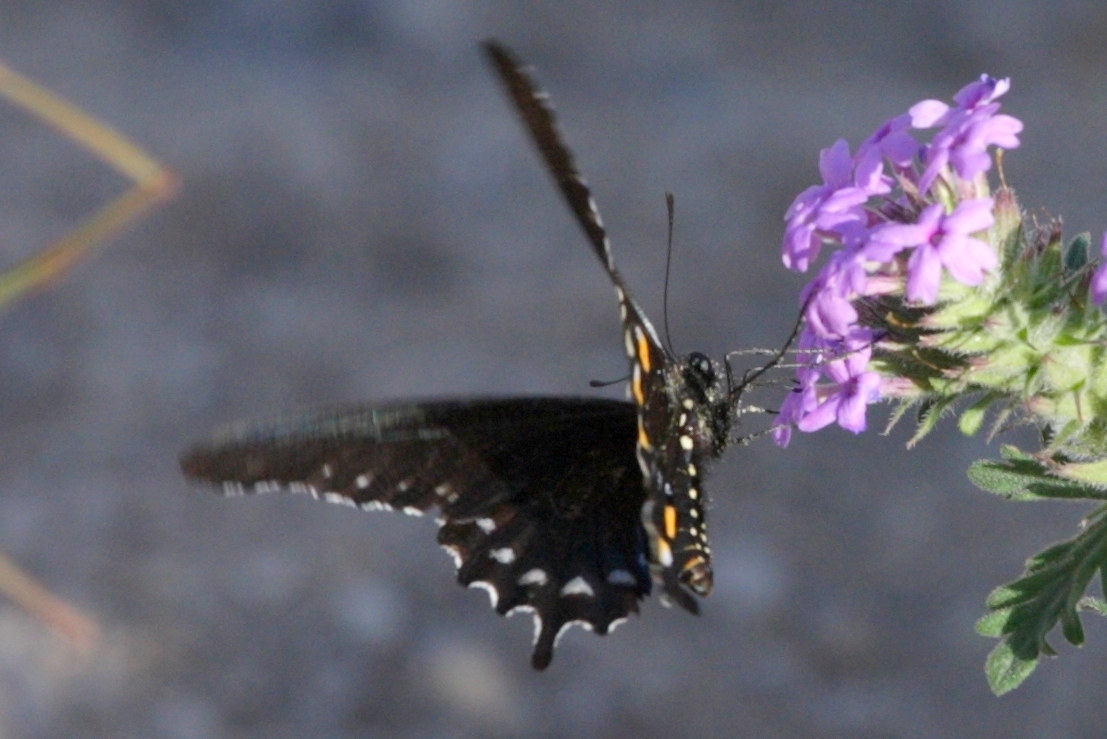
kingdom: Animalia
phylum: Arthropoda
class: Insecta
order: Lepidoptera
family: Papilionidae
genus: Battus
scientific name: Battus philenor
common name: Pipevine swallowtail
